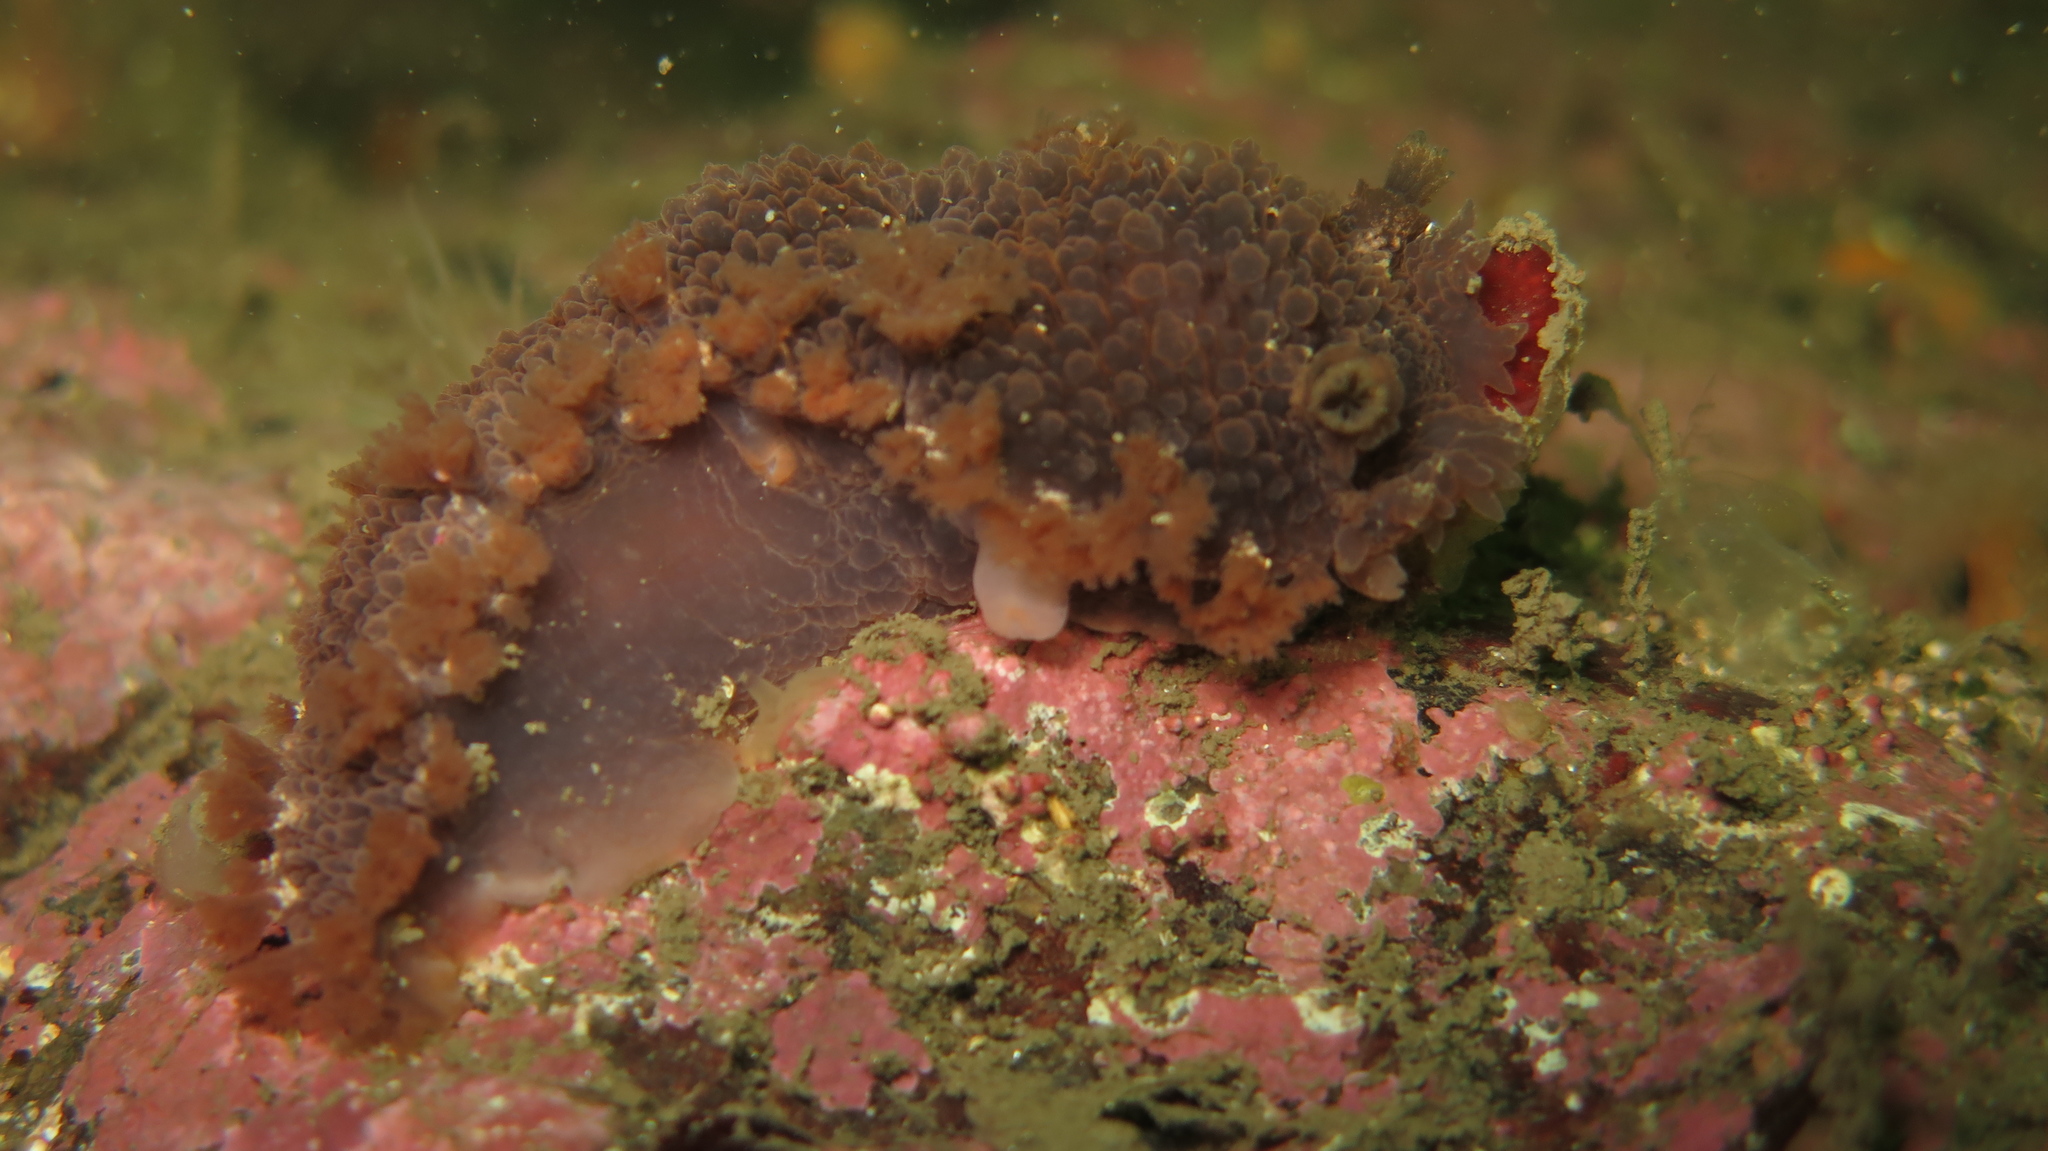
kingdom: Animalia
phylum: Mollusca
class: Gastropoda
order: Nudibranchia
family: Tritoniidae
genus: Tritonia
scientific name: Tritonia hombergii
